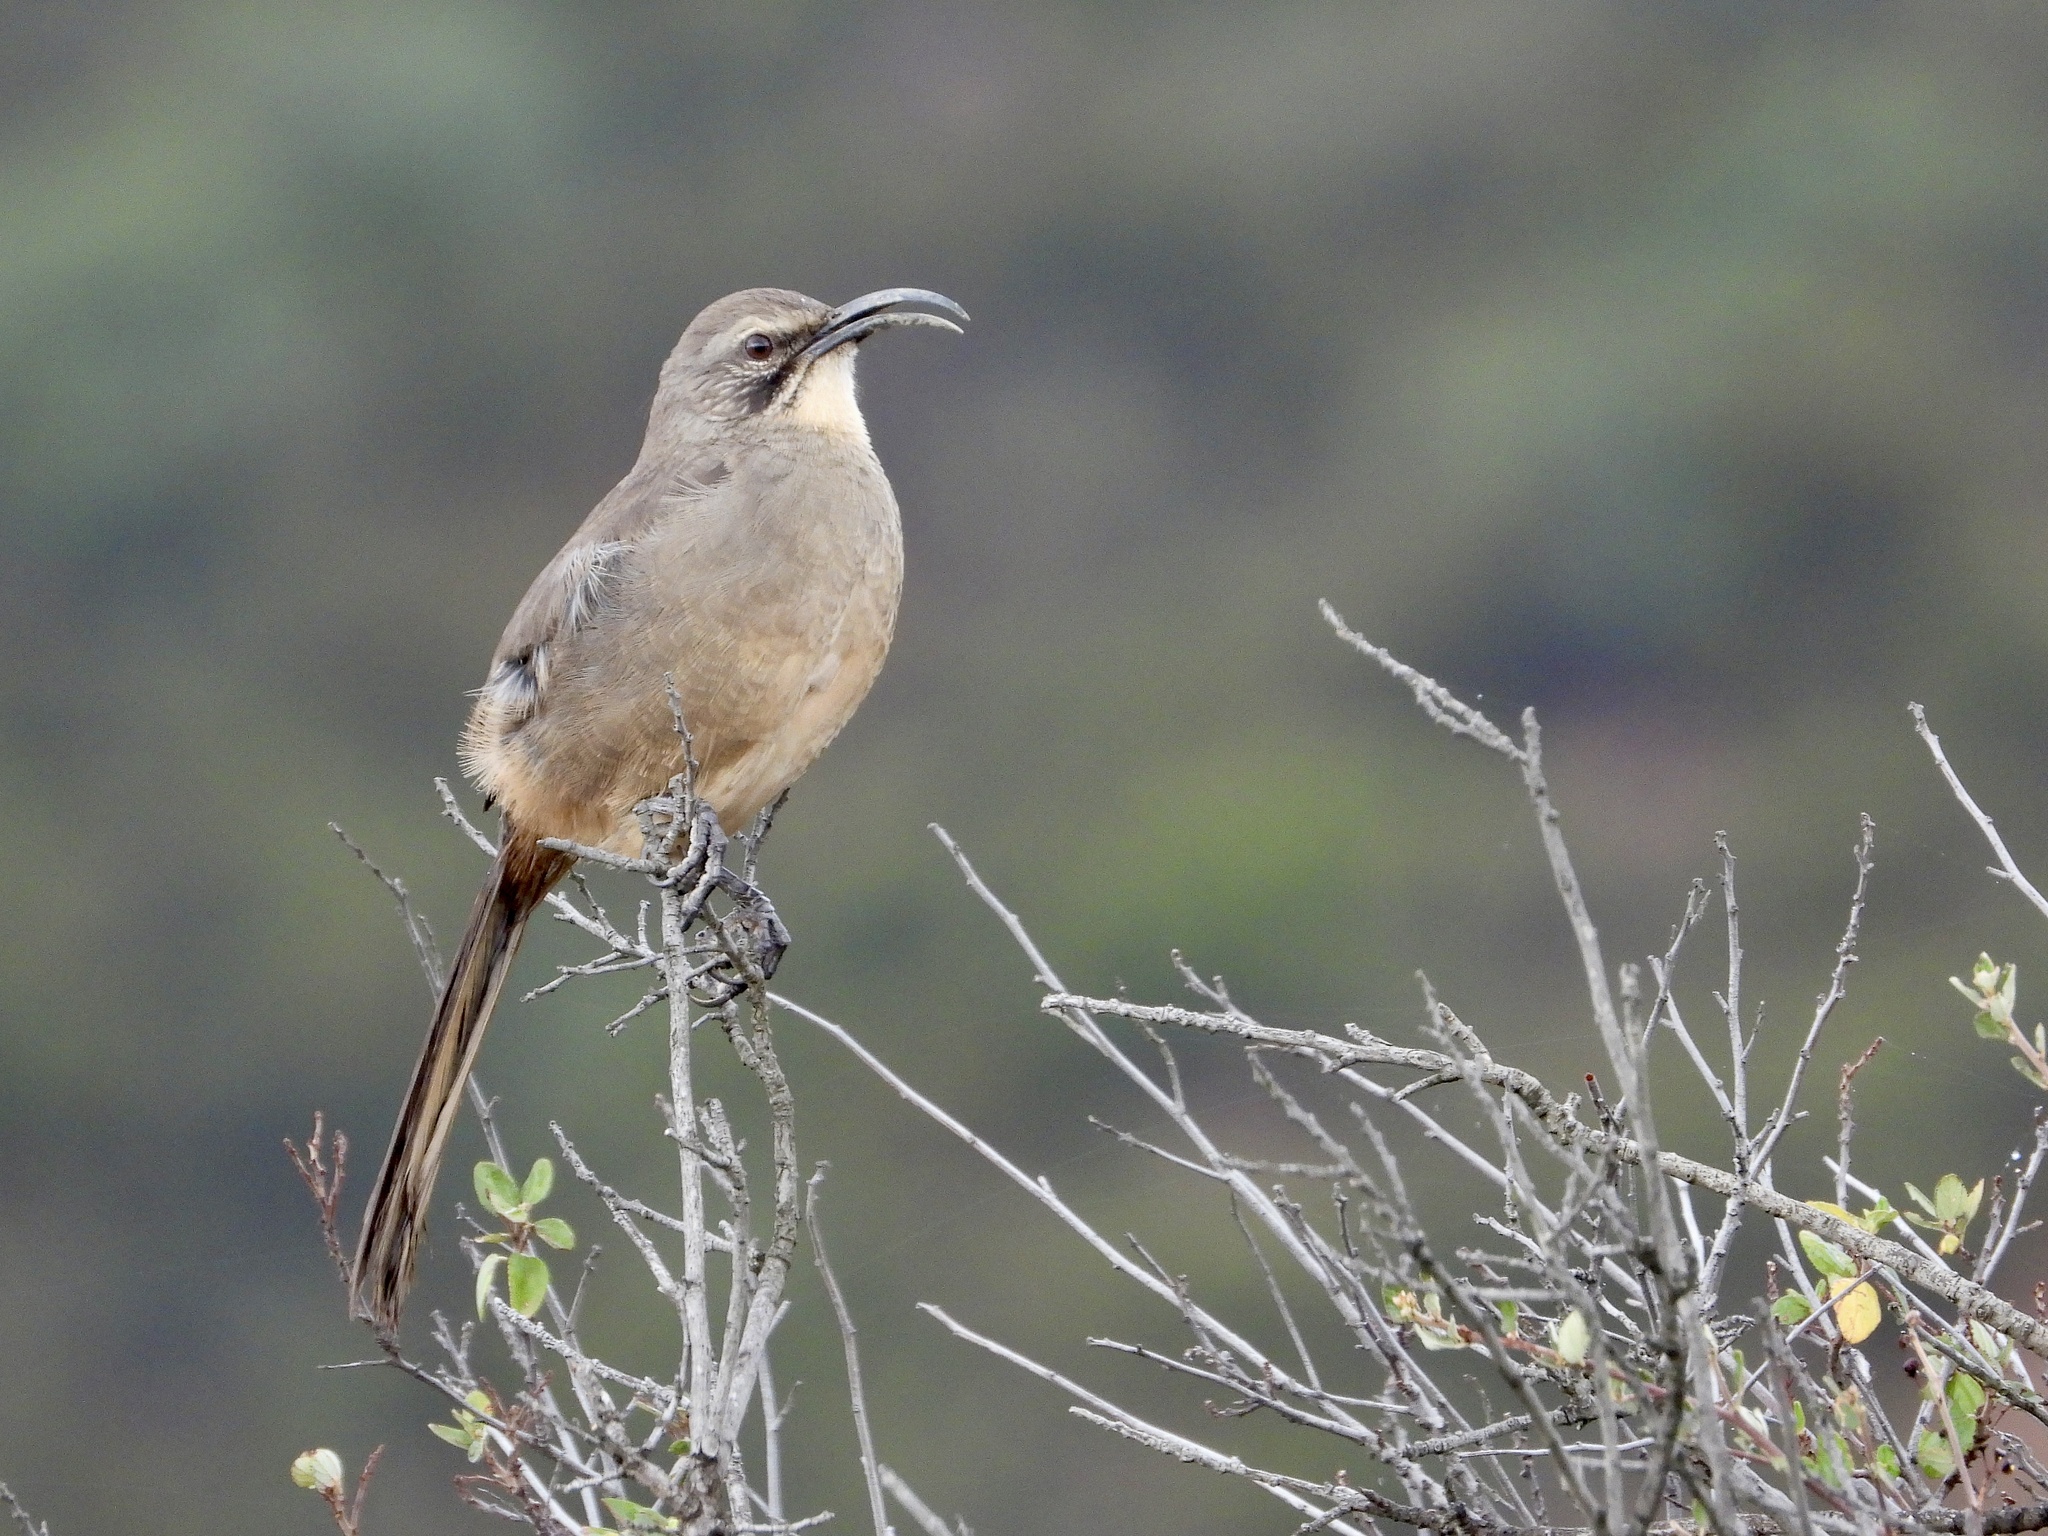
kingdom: Animalia
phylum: Chordata
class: Aves
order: Passeriformes
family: Mimidae
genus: Toxostoma
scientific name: Toxostoma redivivum
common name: California thrasher
